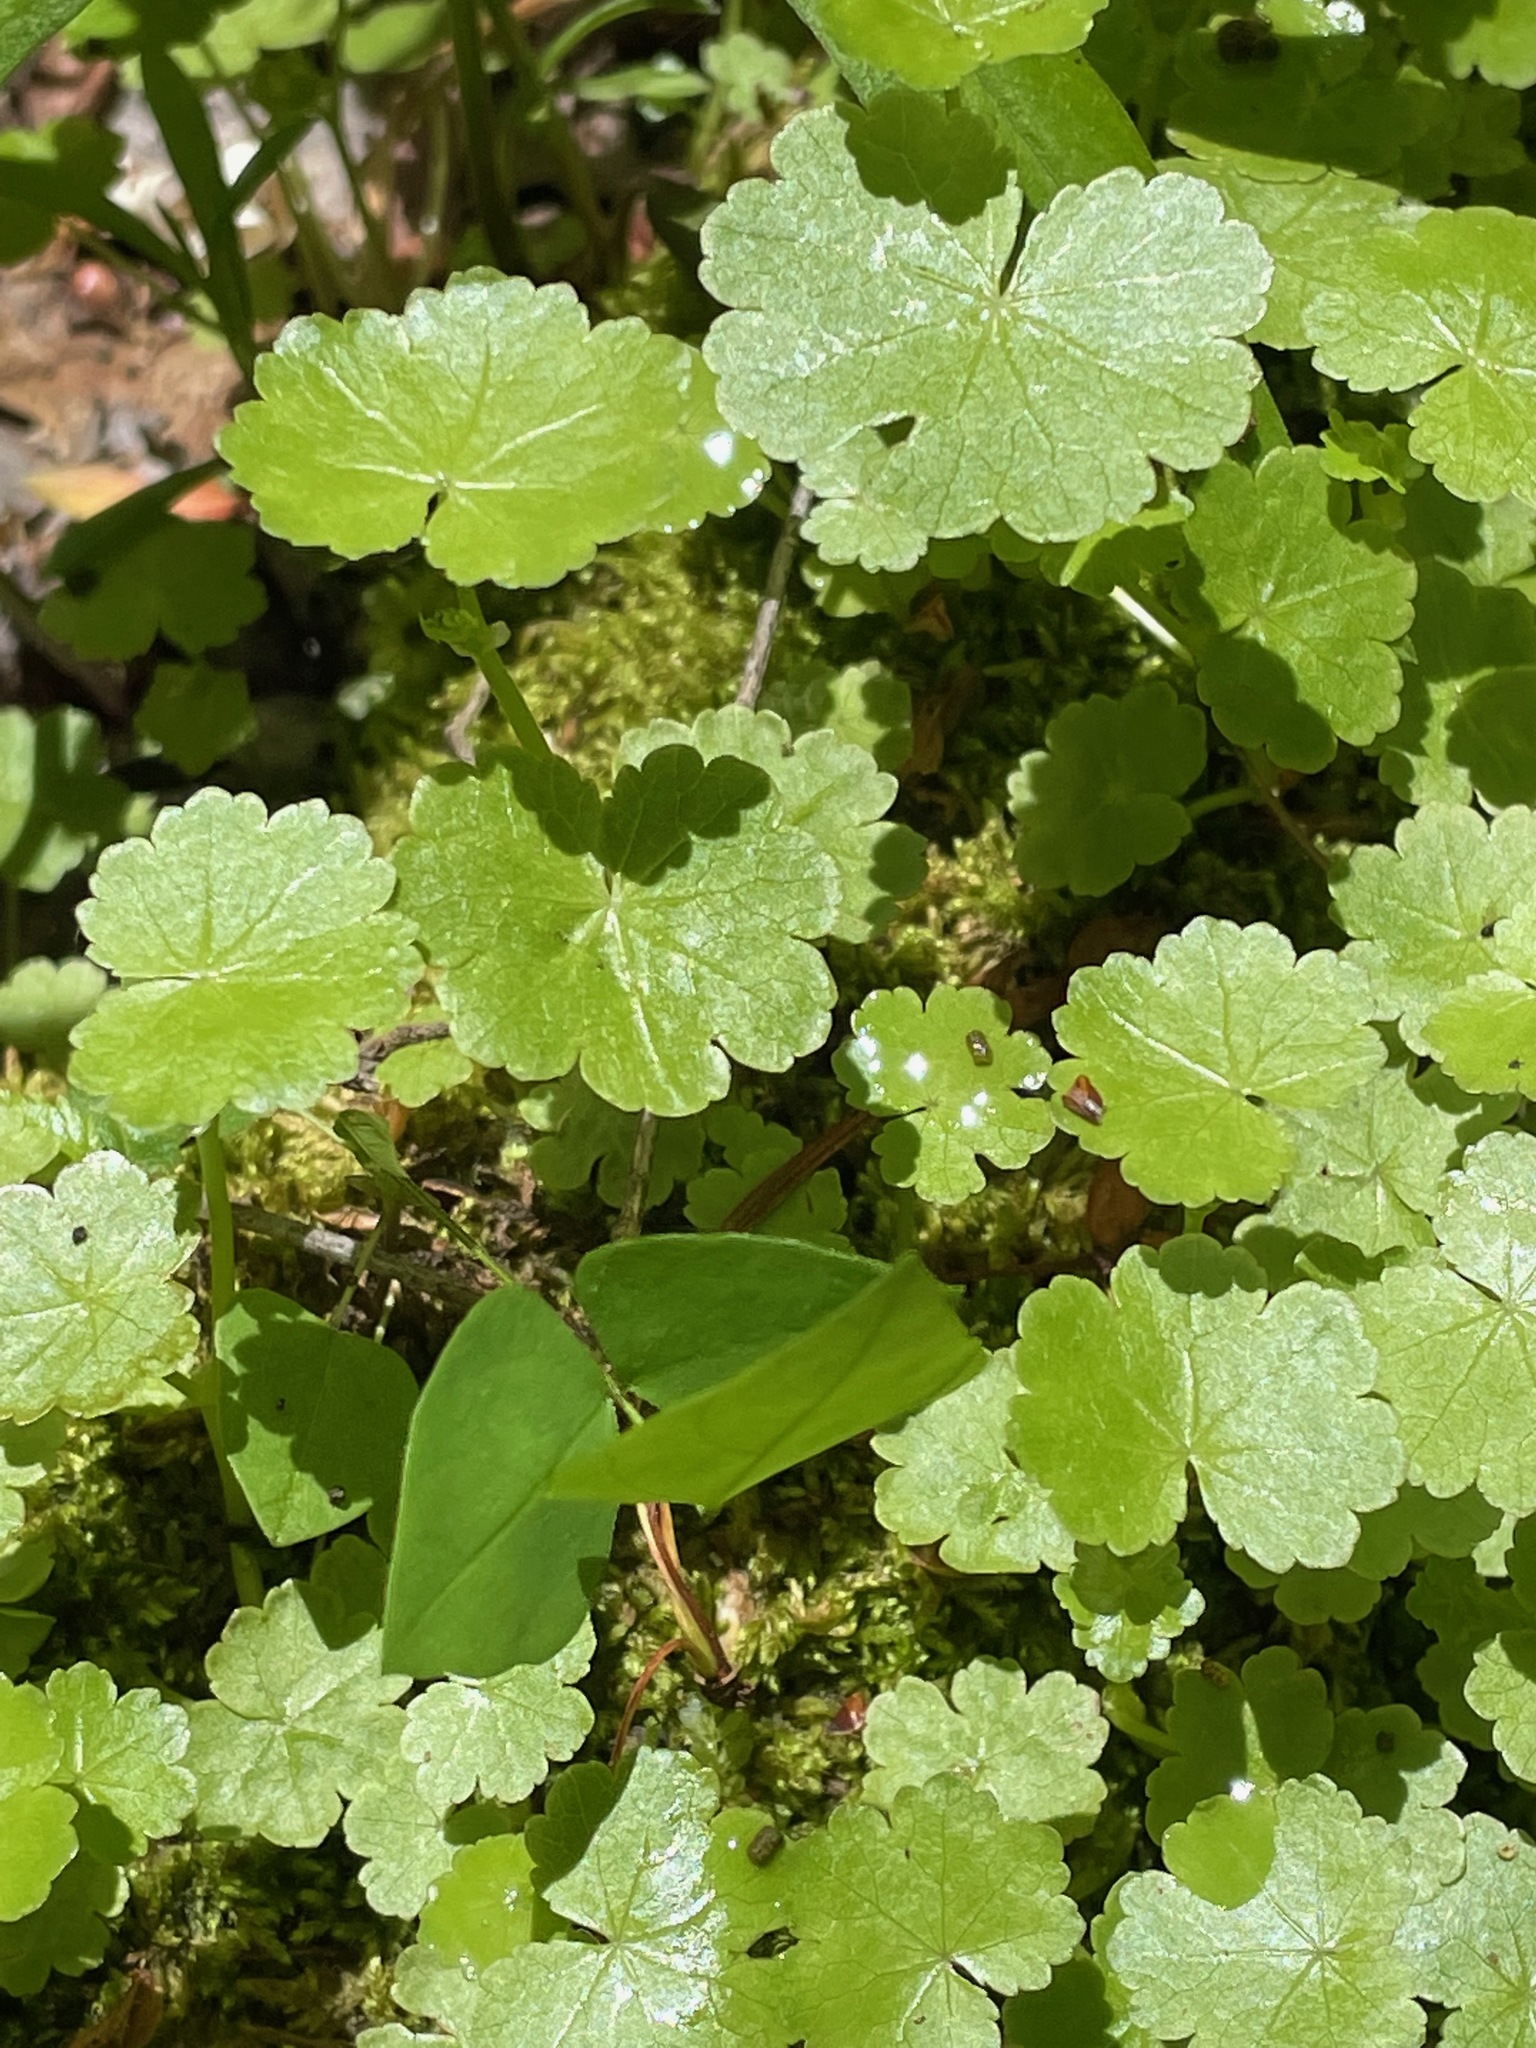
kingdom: Plantae
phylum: Tracheophyta
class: Magnoliopsida
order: Apiales
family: Araliaceae
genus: Hydrocotyle
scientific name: Hydrocotyle americana
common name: American water-pennywort
